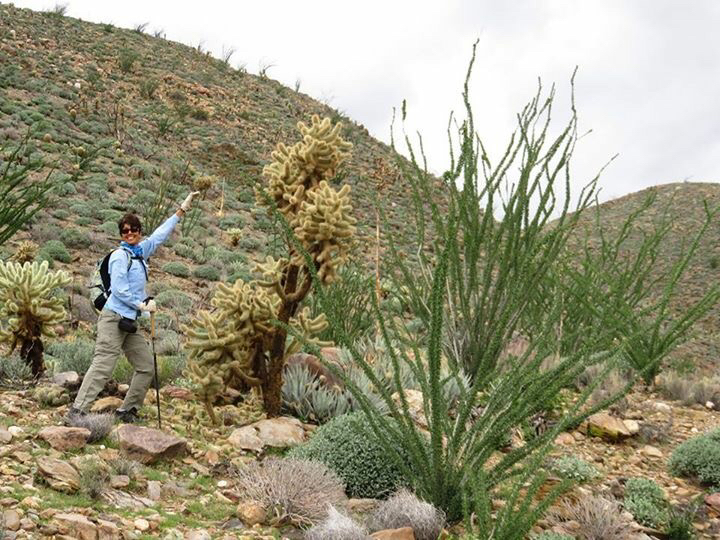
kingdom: Plantae
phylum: Tracheophyta
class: Magnoliopsida
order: Caryophyllales
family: Cactaceae
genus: Cylindropuntia
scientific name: Cylindropuntia fosbergii
